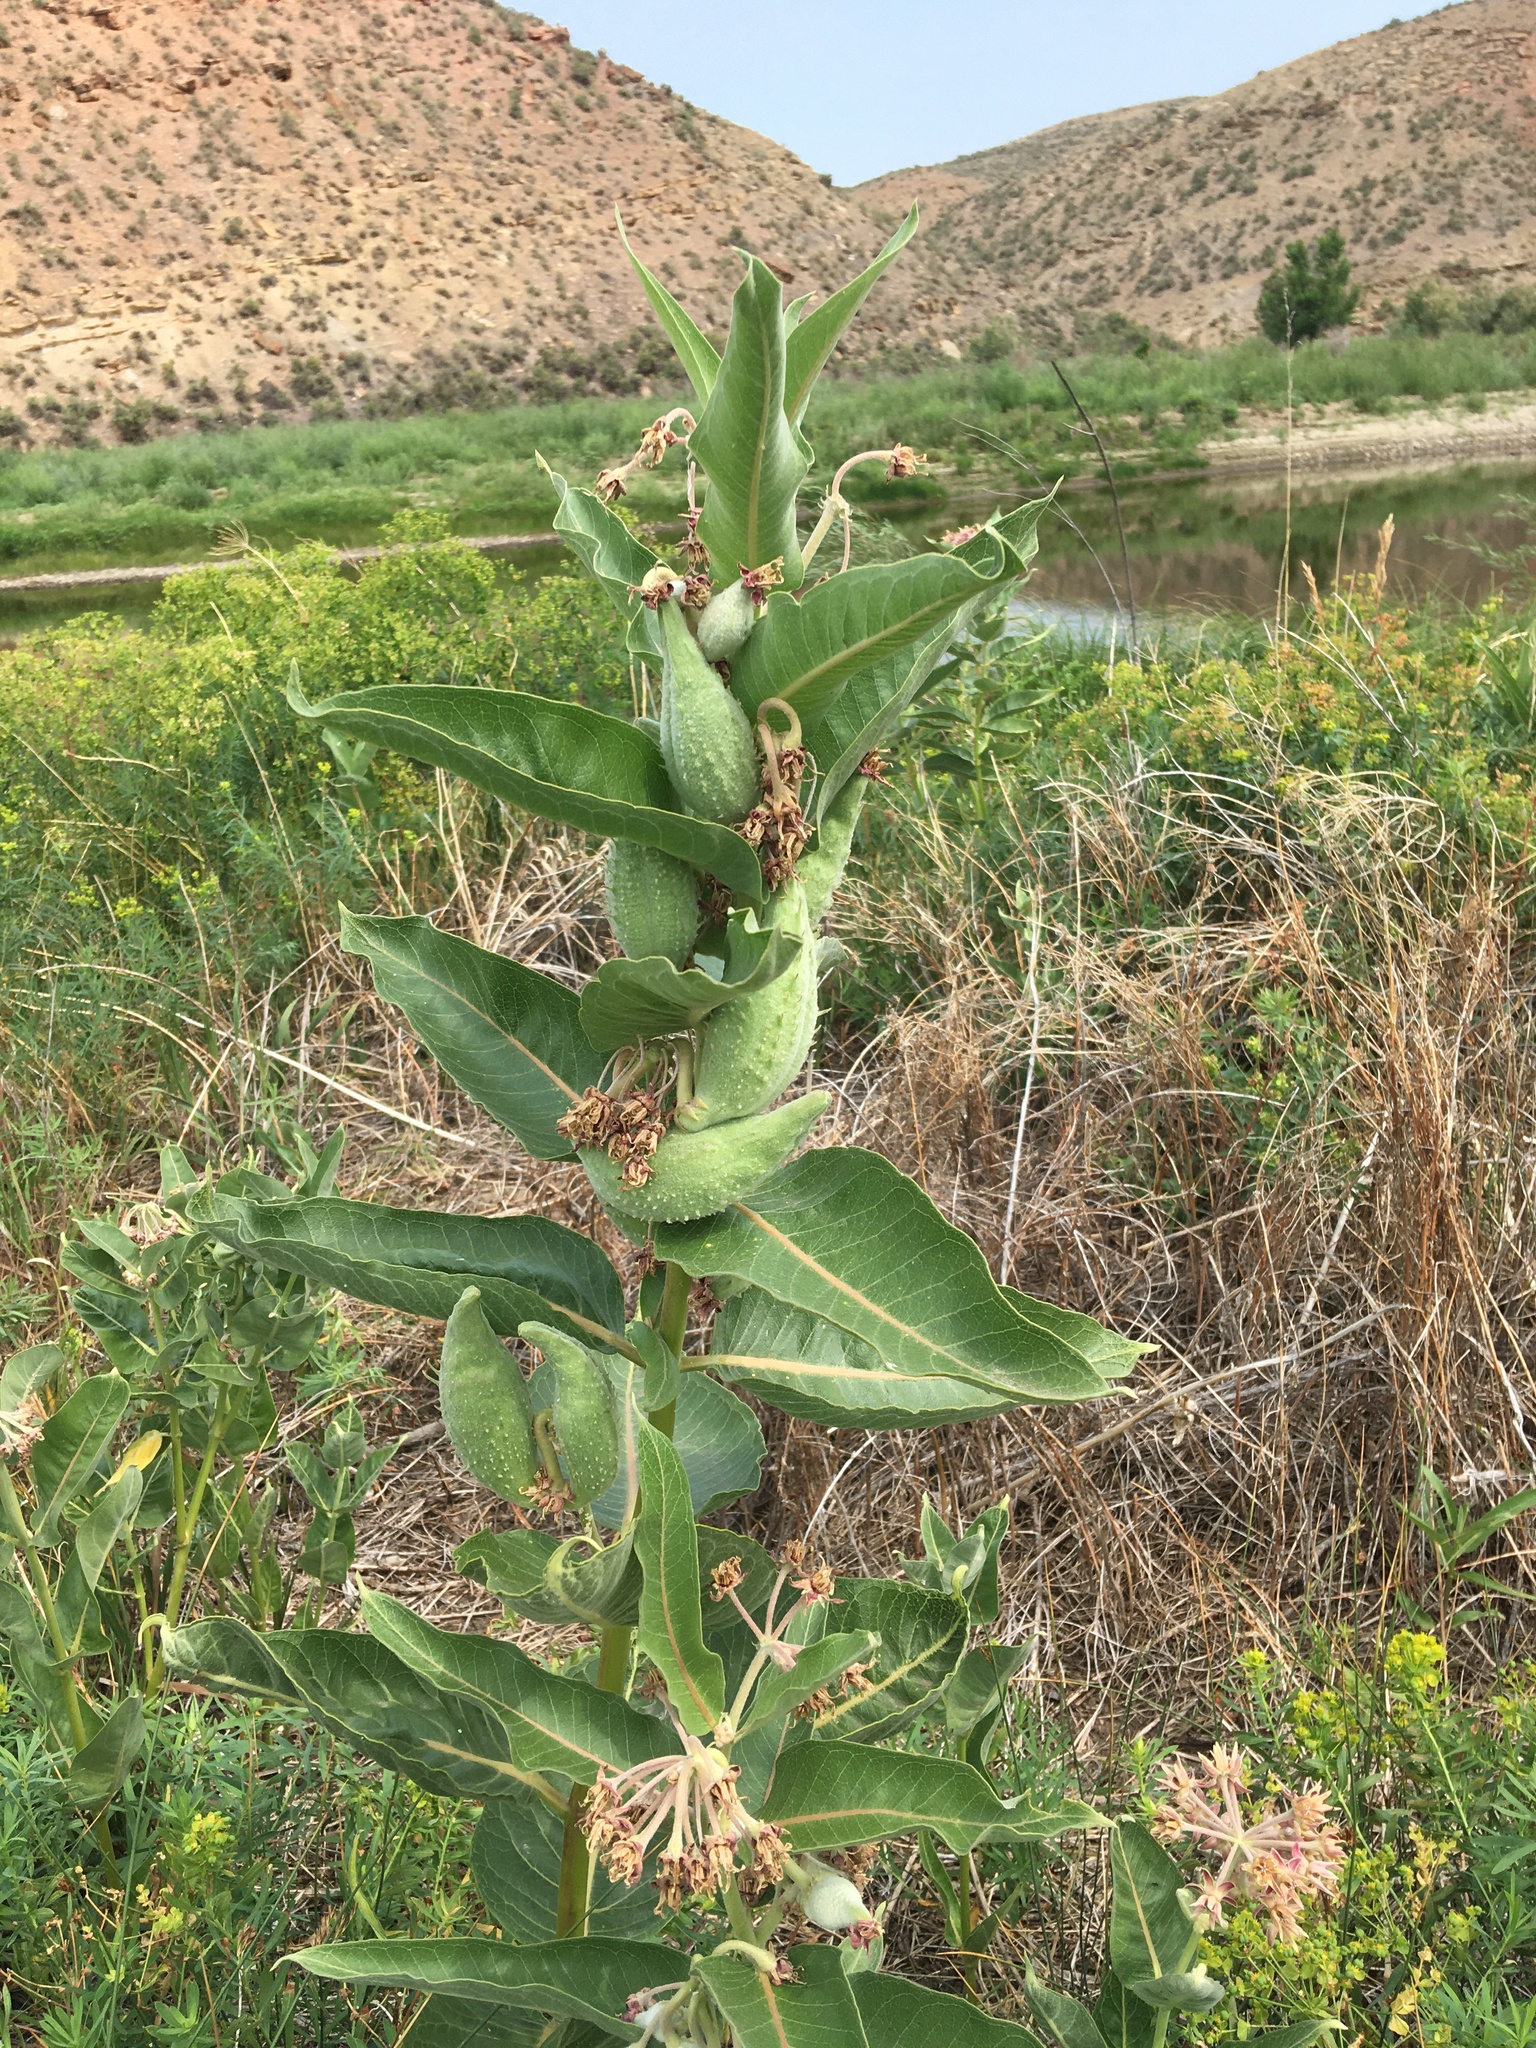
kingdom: Plantae
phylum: Tracheophyta
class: Magnoliopsida
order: Gentianales
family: Apocynaceae
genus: Asclepias
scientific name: Asclepias speciosa
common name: Showy milkweed
